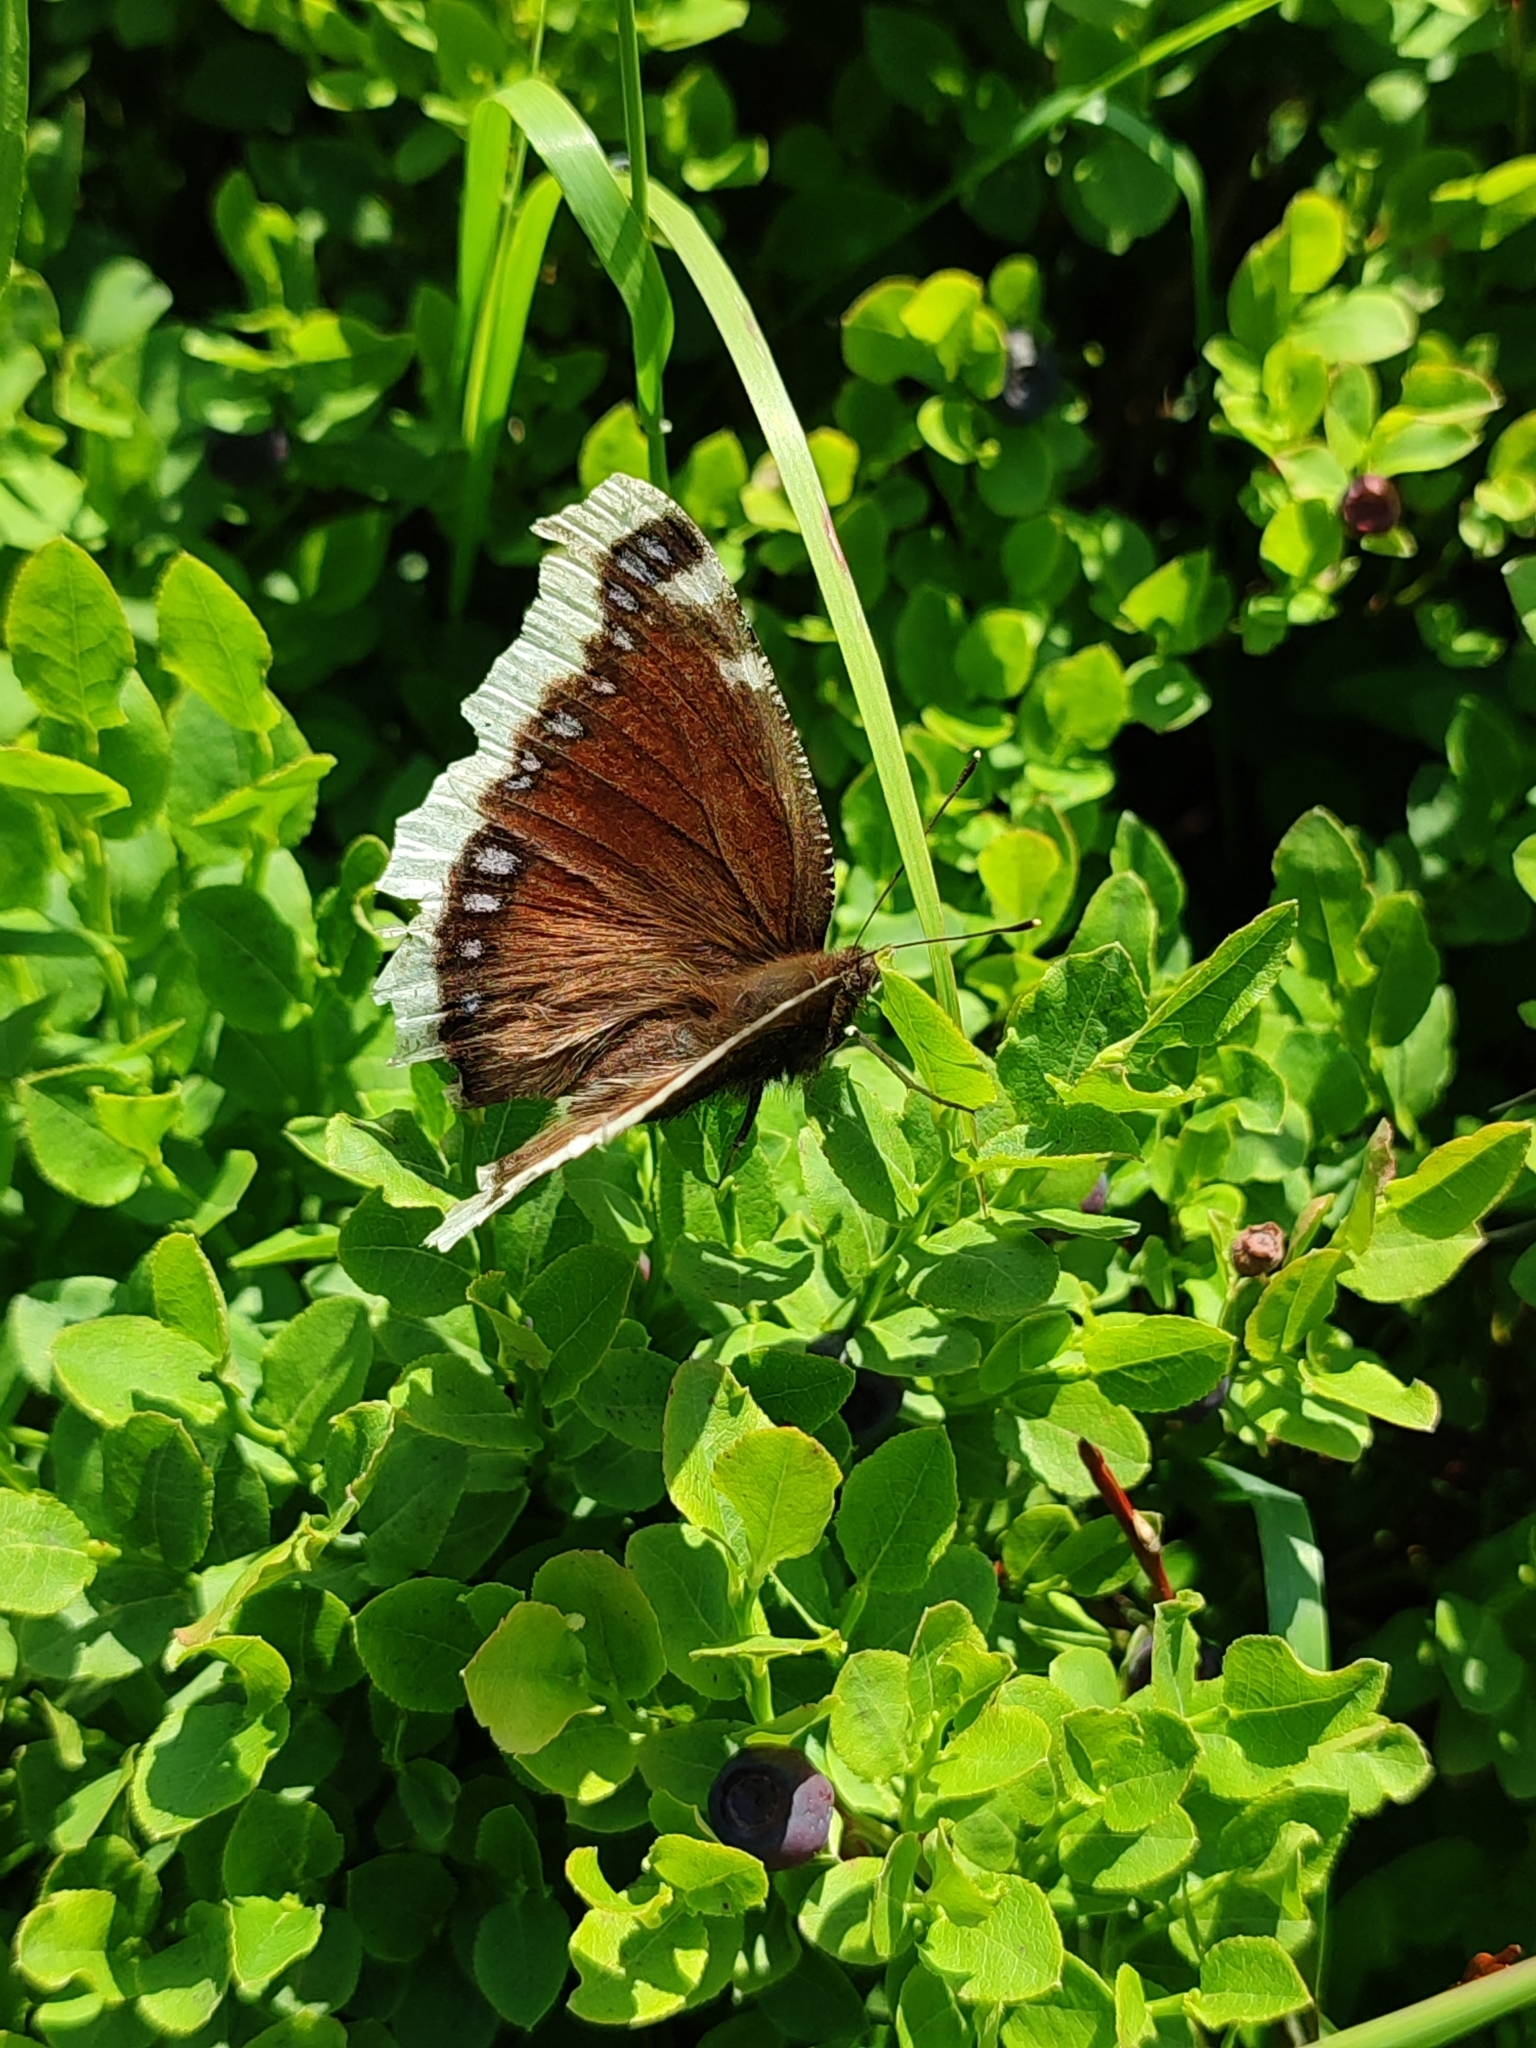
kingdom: Animalia
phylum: Arthropoda
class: Insecta
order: Lepidoptera
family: Nymphalidae
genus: Nymphalis
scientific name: Nymphalis antiopa
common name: Camberwell beauty
